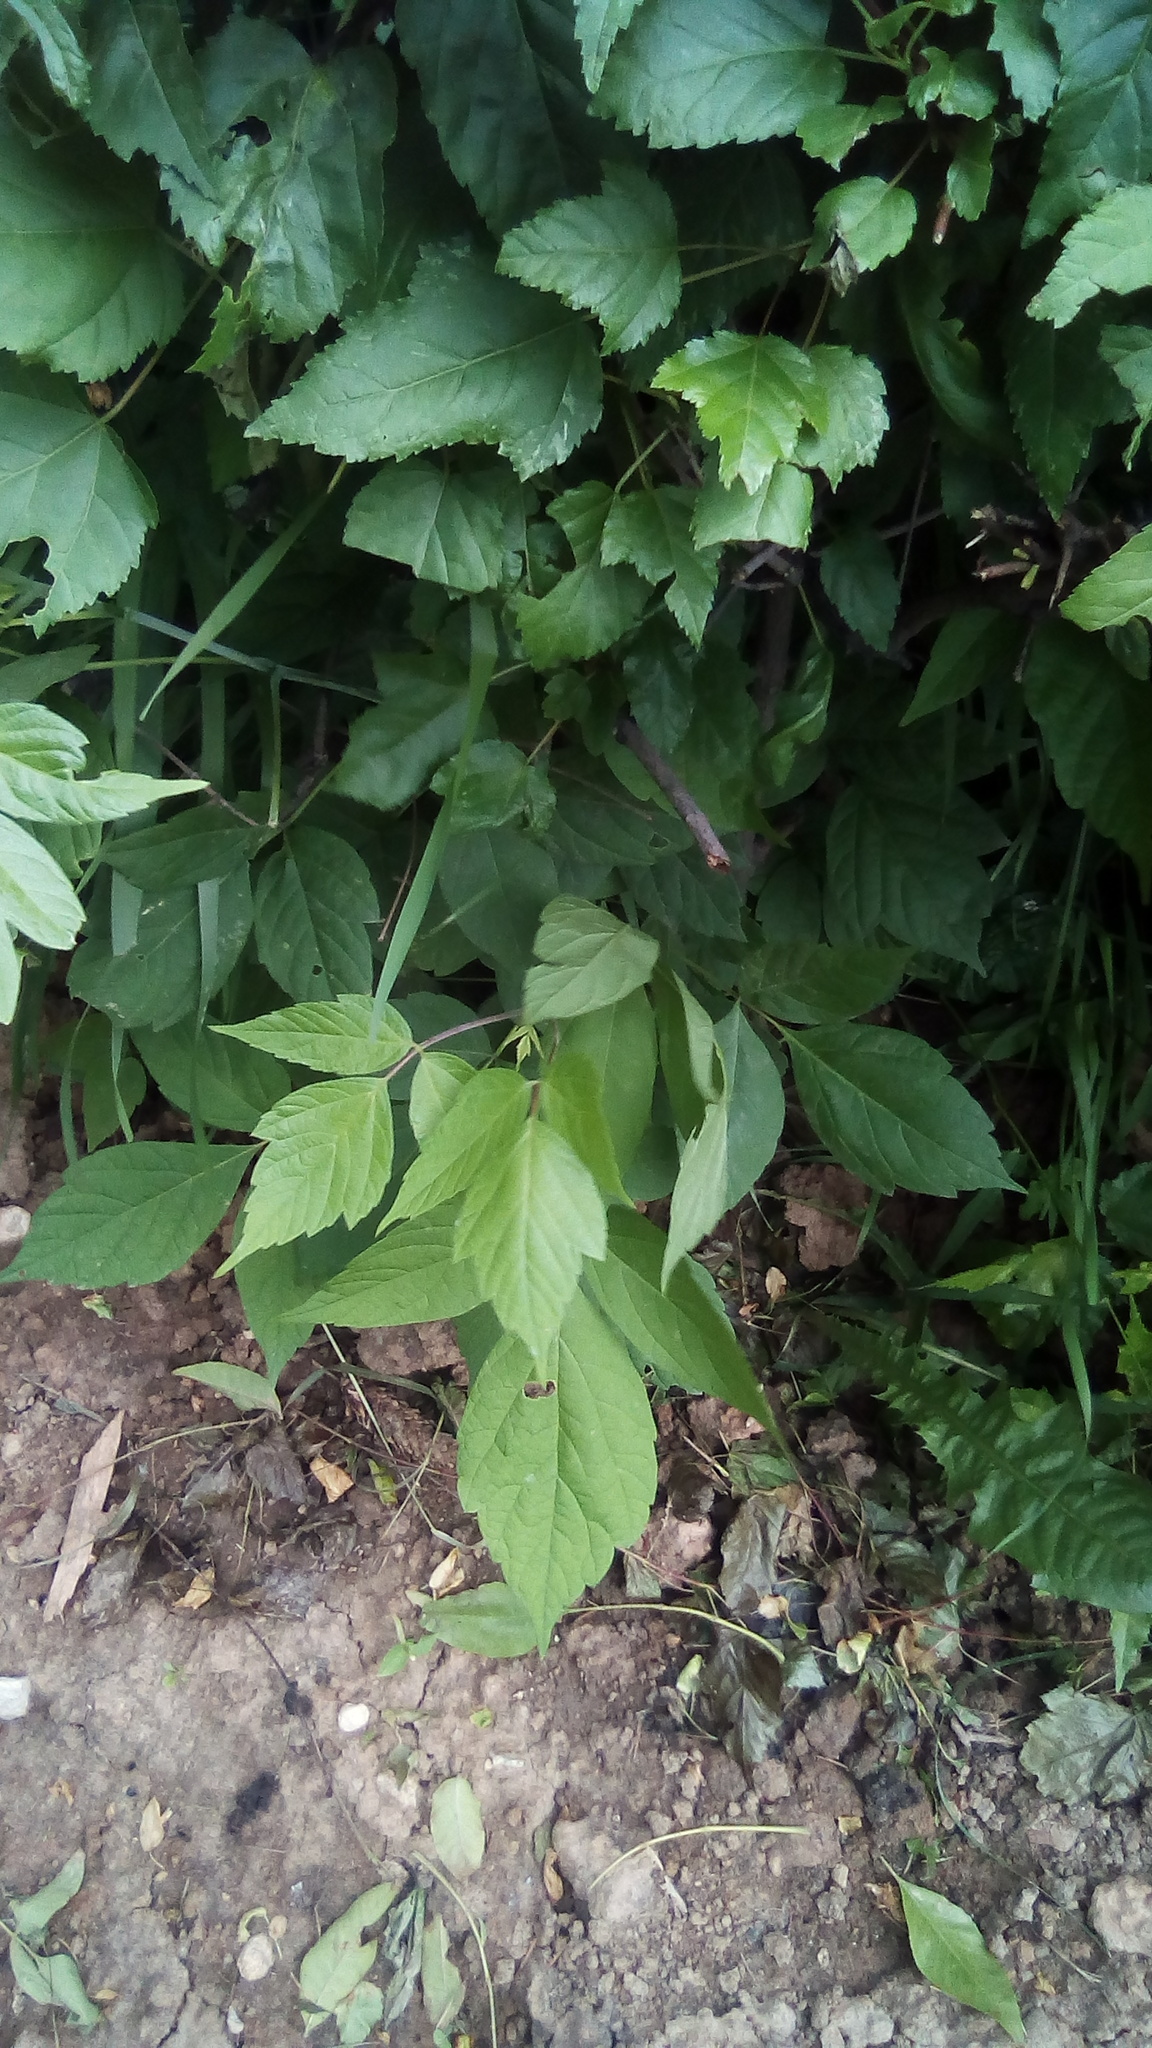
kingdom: Plantae
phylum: Tracheophyta
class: Magnoliopsida
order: Sapindales
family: Sapindaceae
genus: Acer
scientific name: Acer negundo
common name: Ashleaf maple
